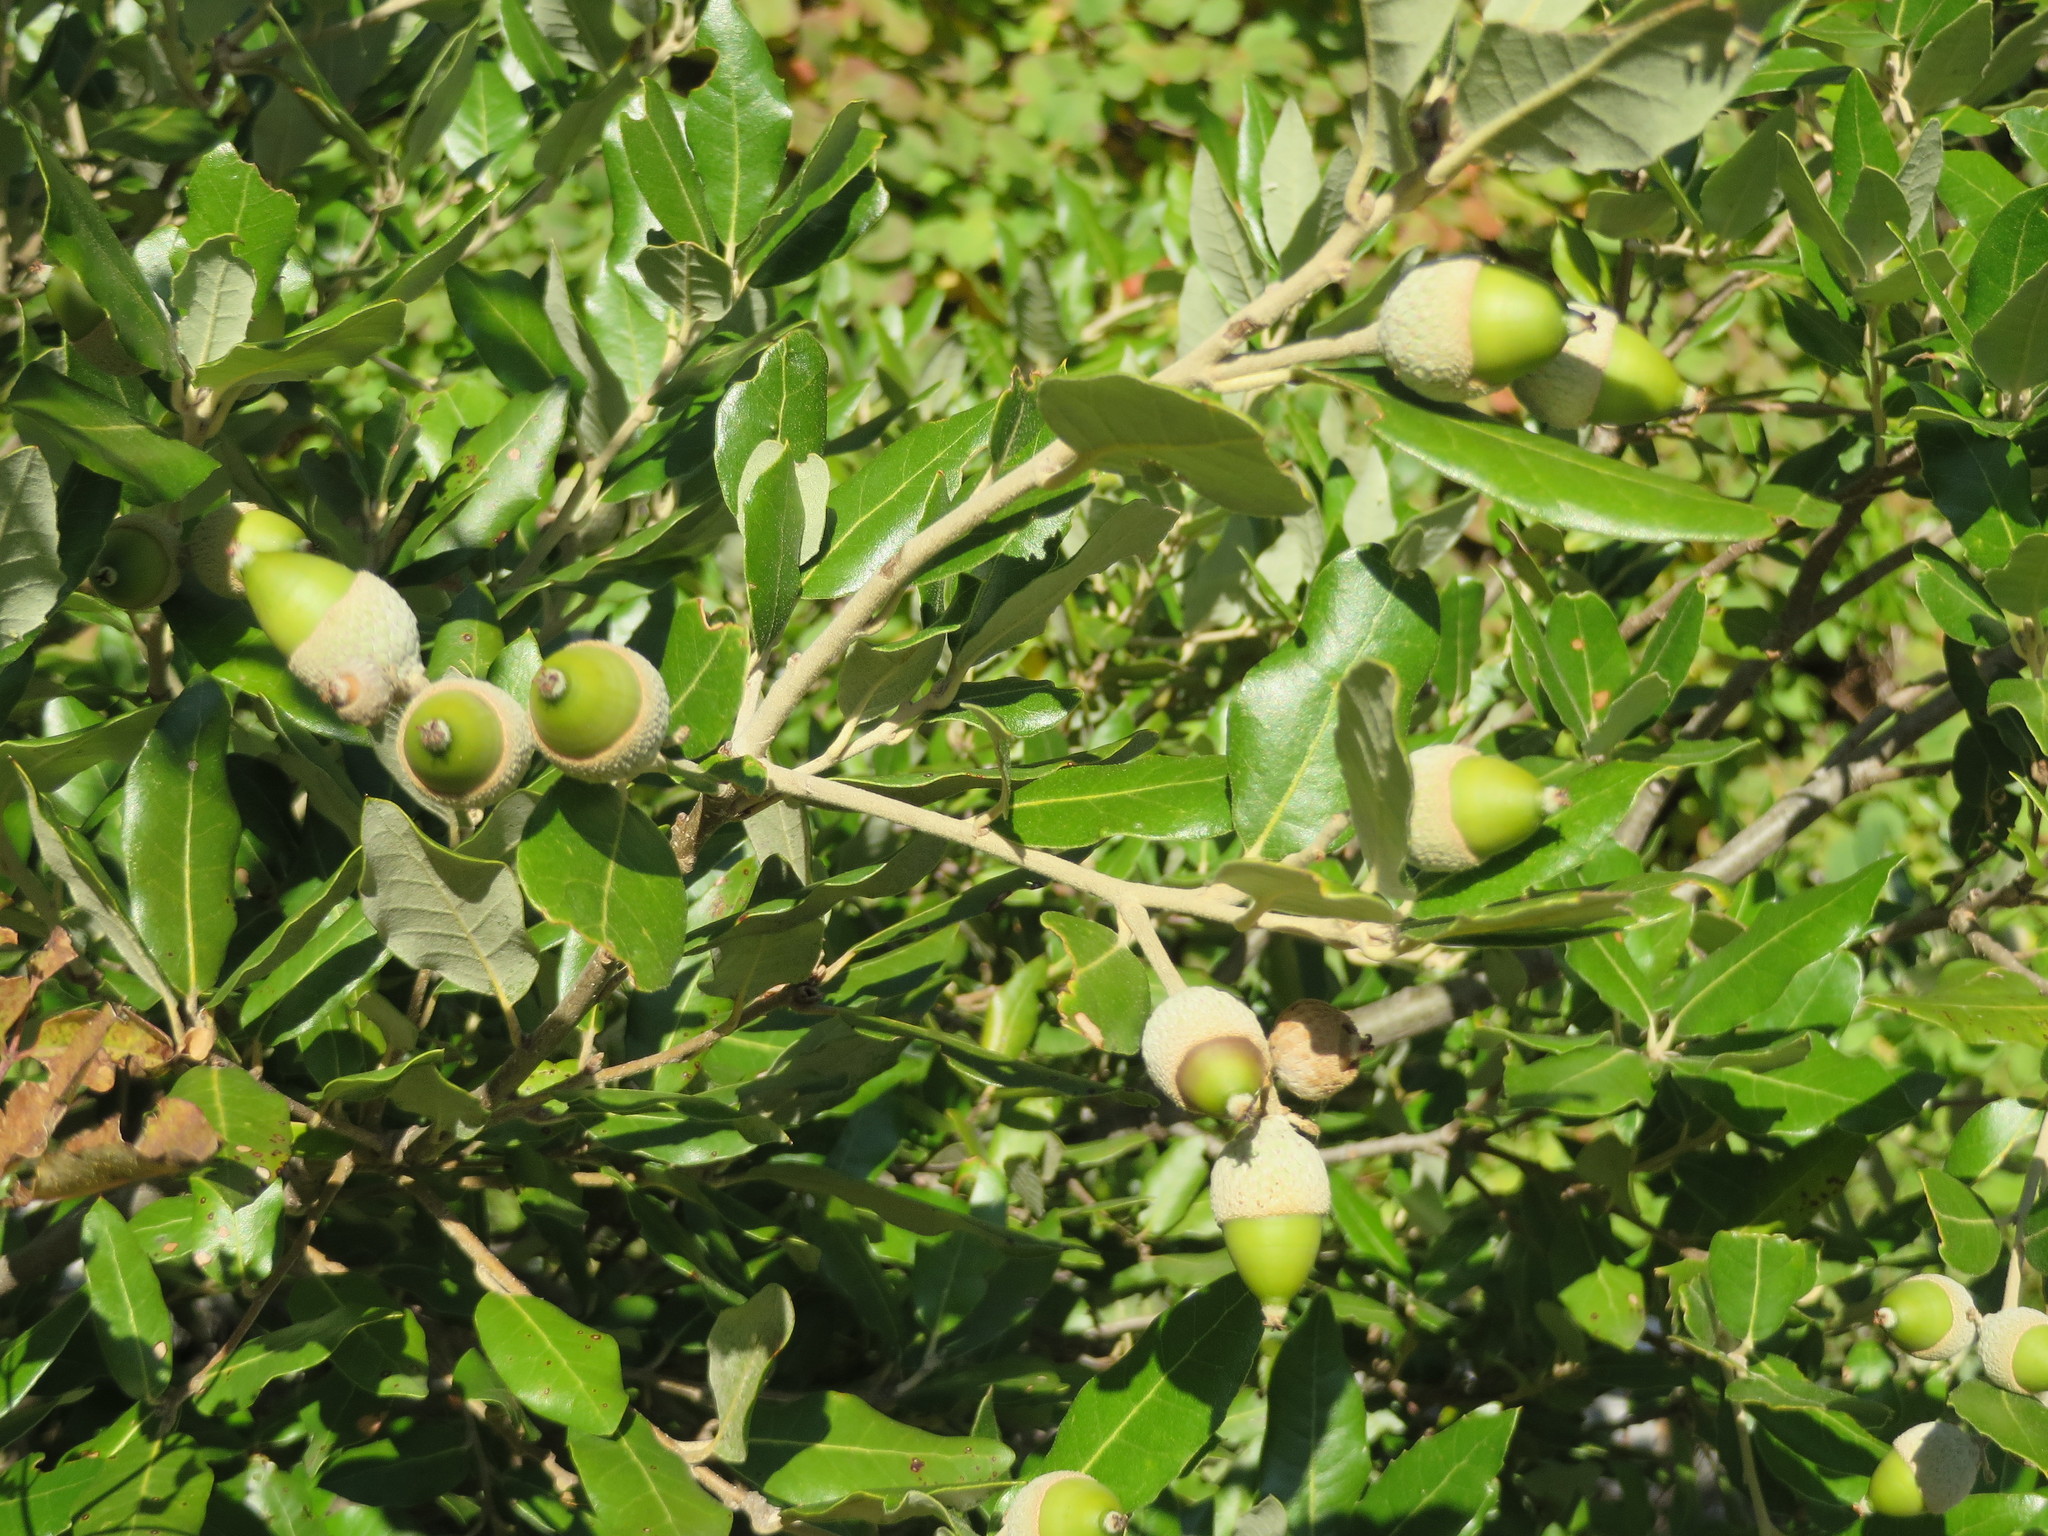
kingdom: Plantae
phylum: Tracheophyta
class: Magnoliopsida
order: Fagales
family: Fagaceae
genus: Quercus
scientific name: Quercus ilex
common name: Evergreen oak
